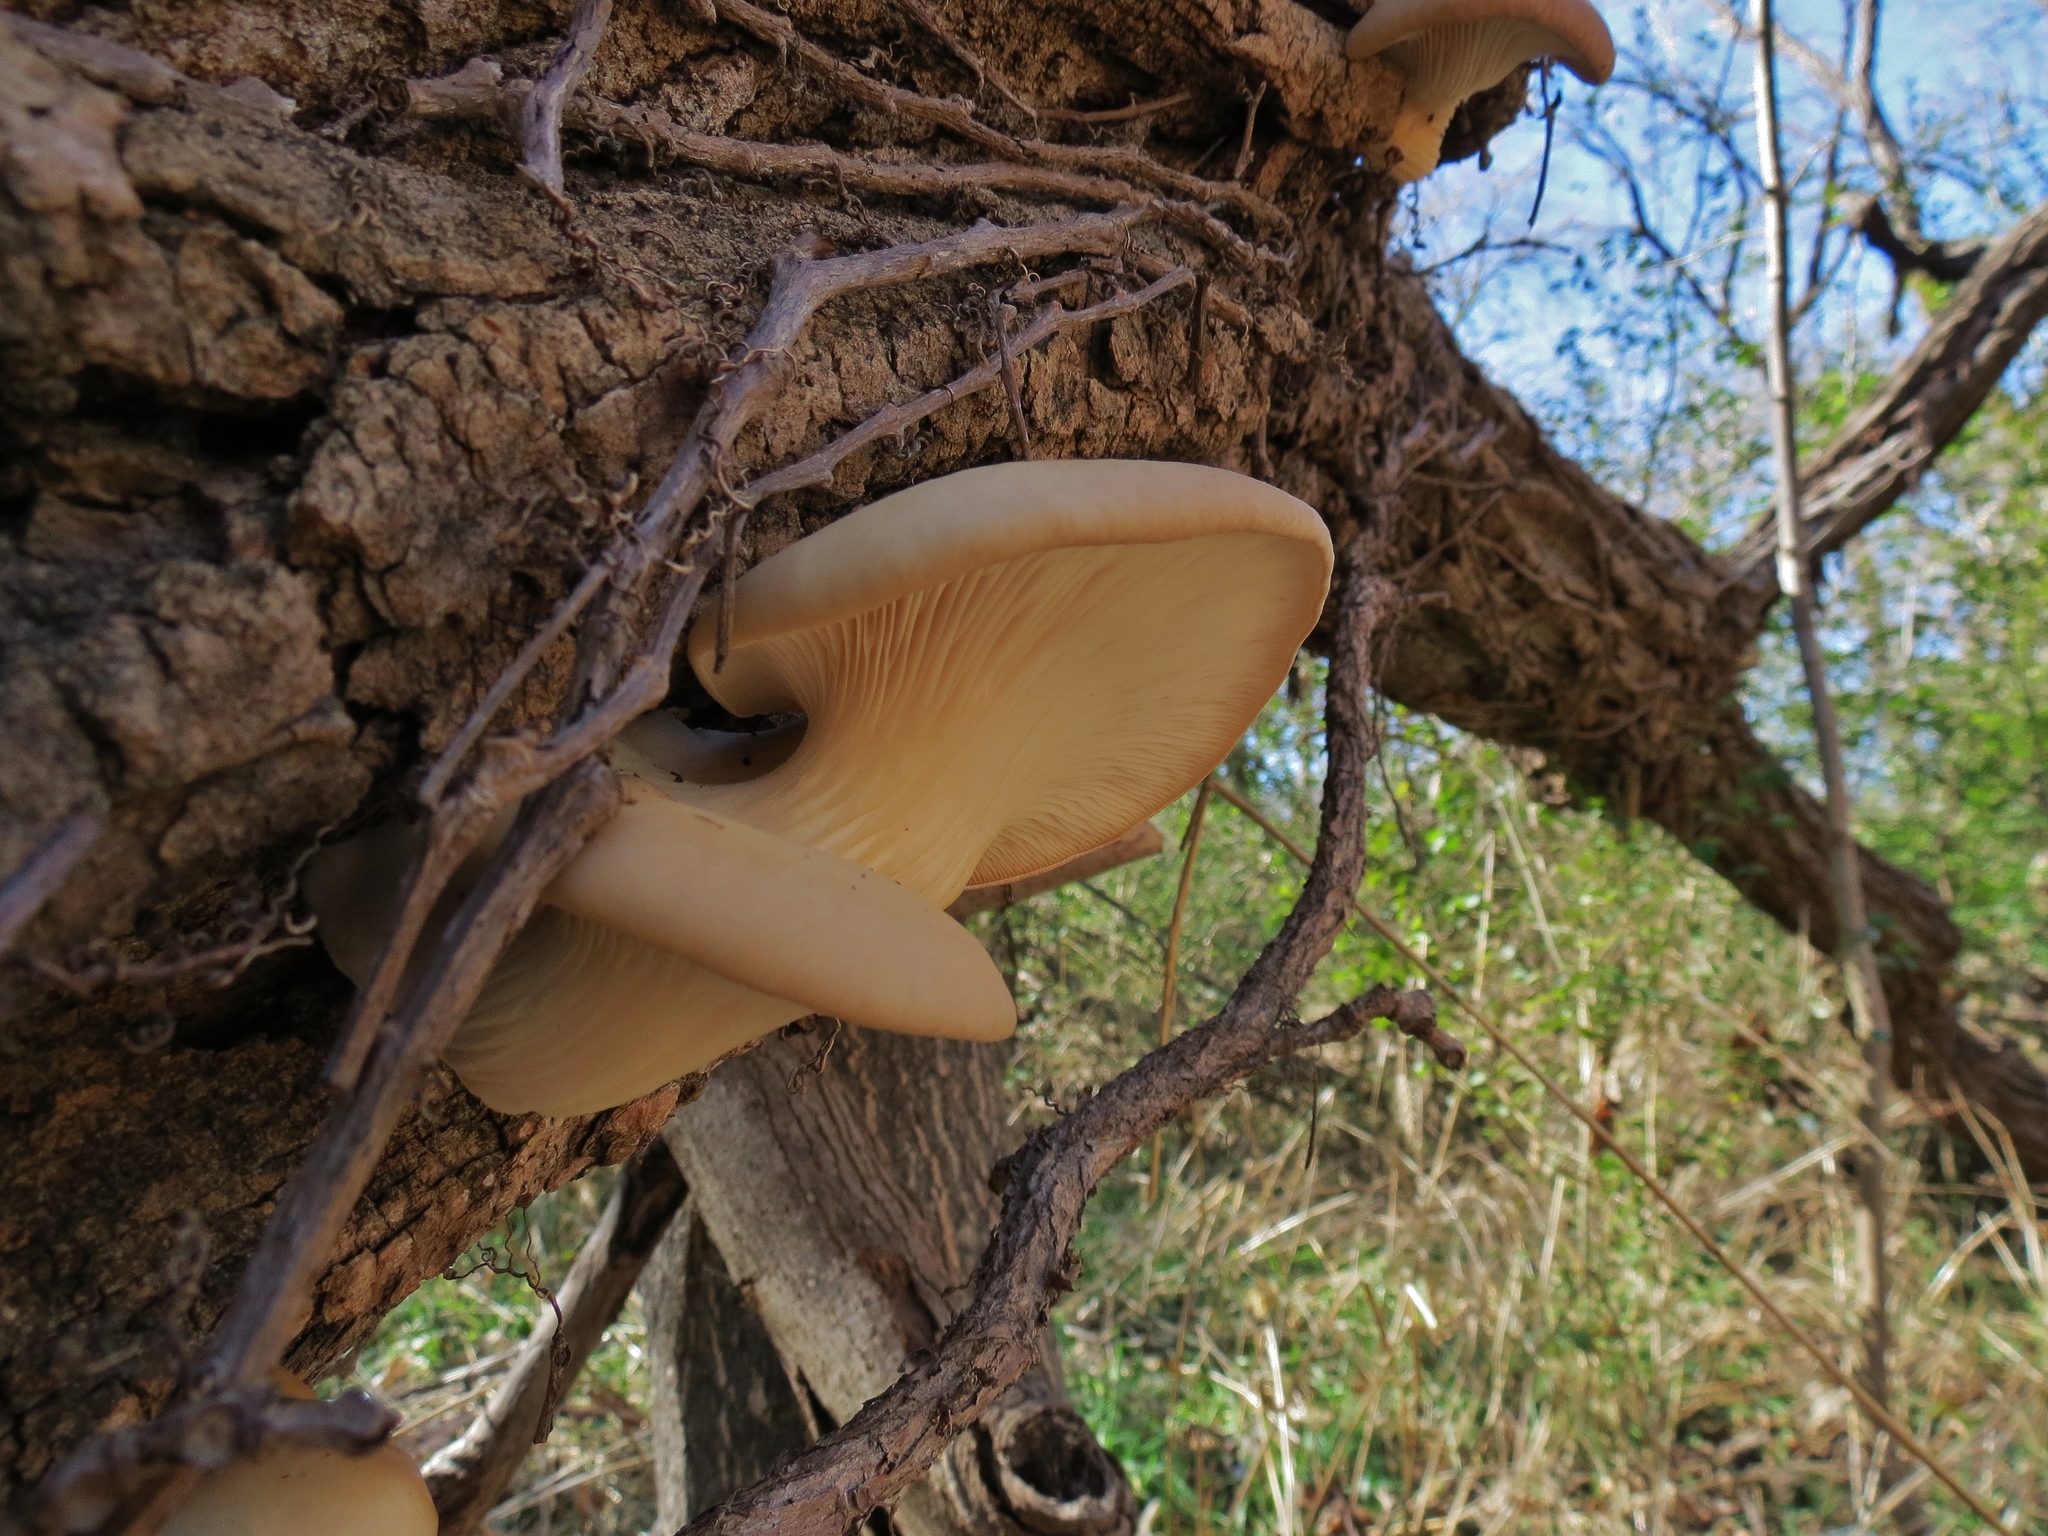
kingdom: Fungi
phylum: Basidiomycota
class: Agaricomycetes
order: Agaricales
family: Pleurotaceae
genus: Pleurotus
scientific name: Pleurotus ostreatus
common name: Oyster mushroom
